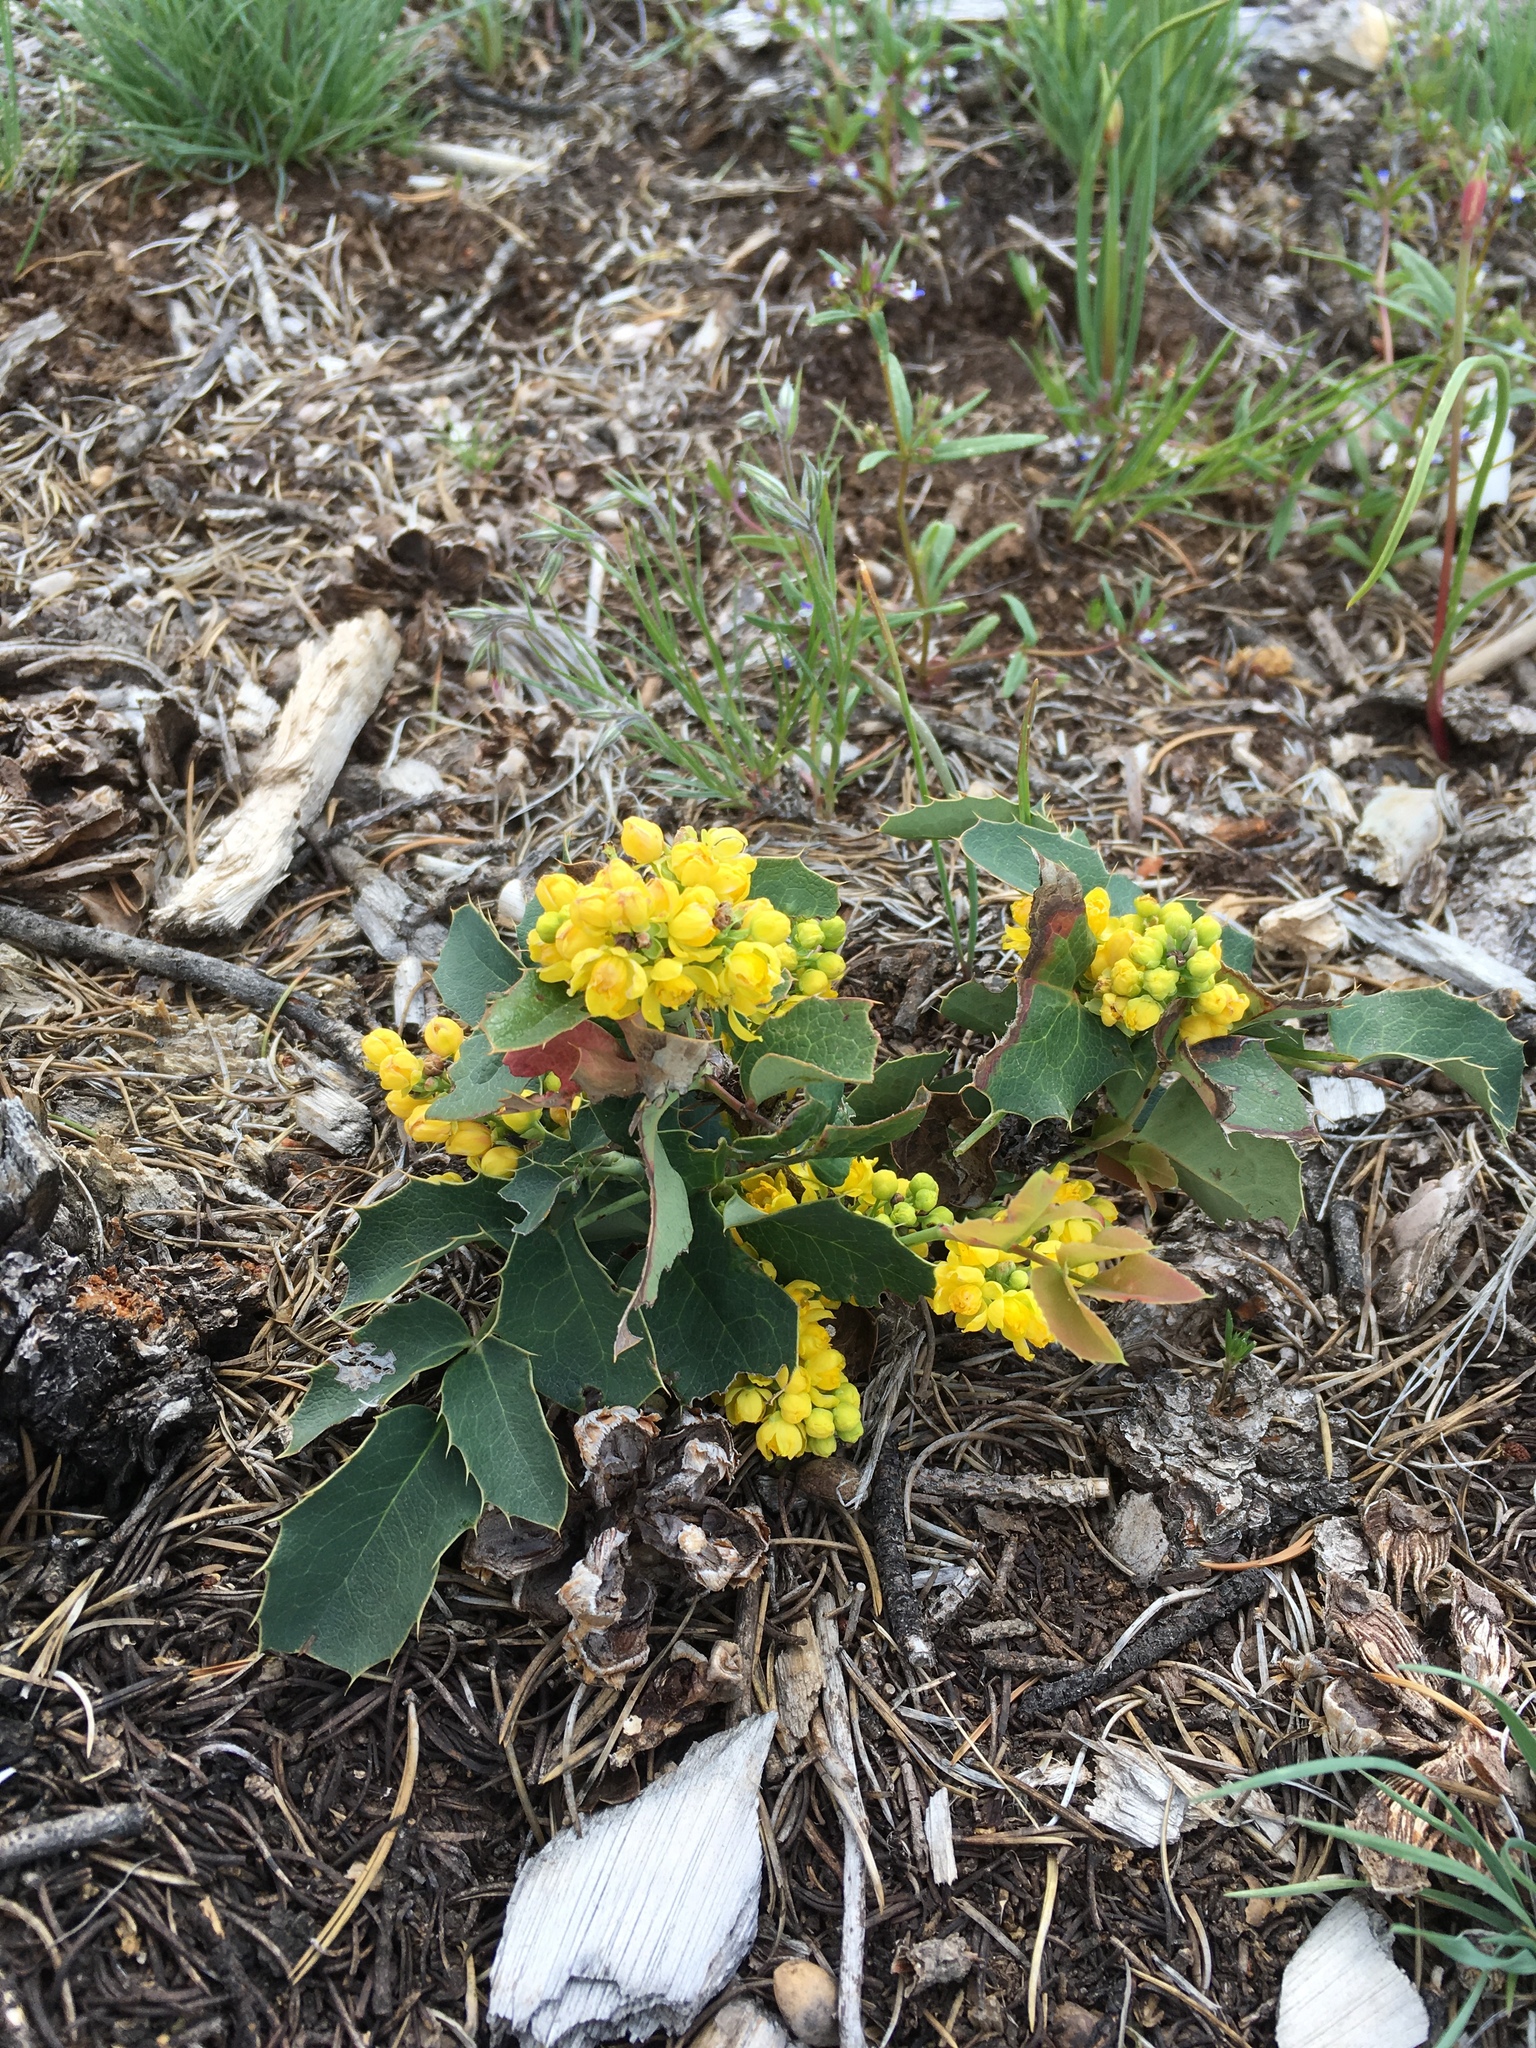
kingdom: Plantae
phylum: Tracheophyta
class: Magnoliopsida
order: Ranunculales
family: Berberidaceae
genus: Mahonia
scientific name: Mahonia repens
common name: Creeping oregon-grape
